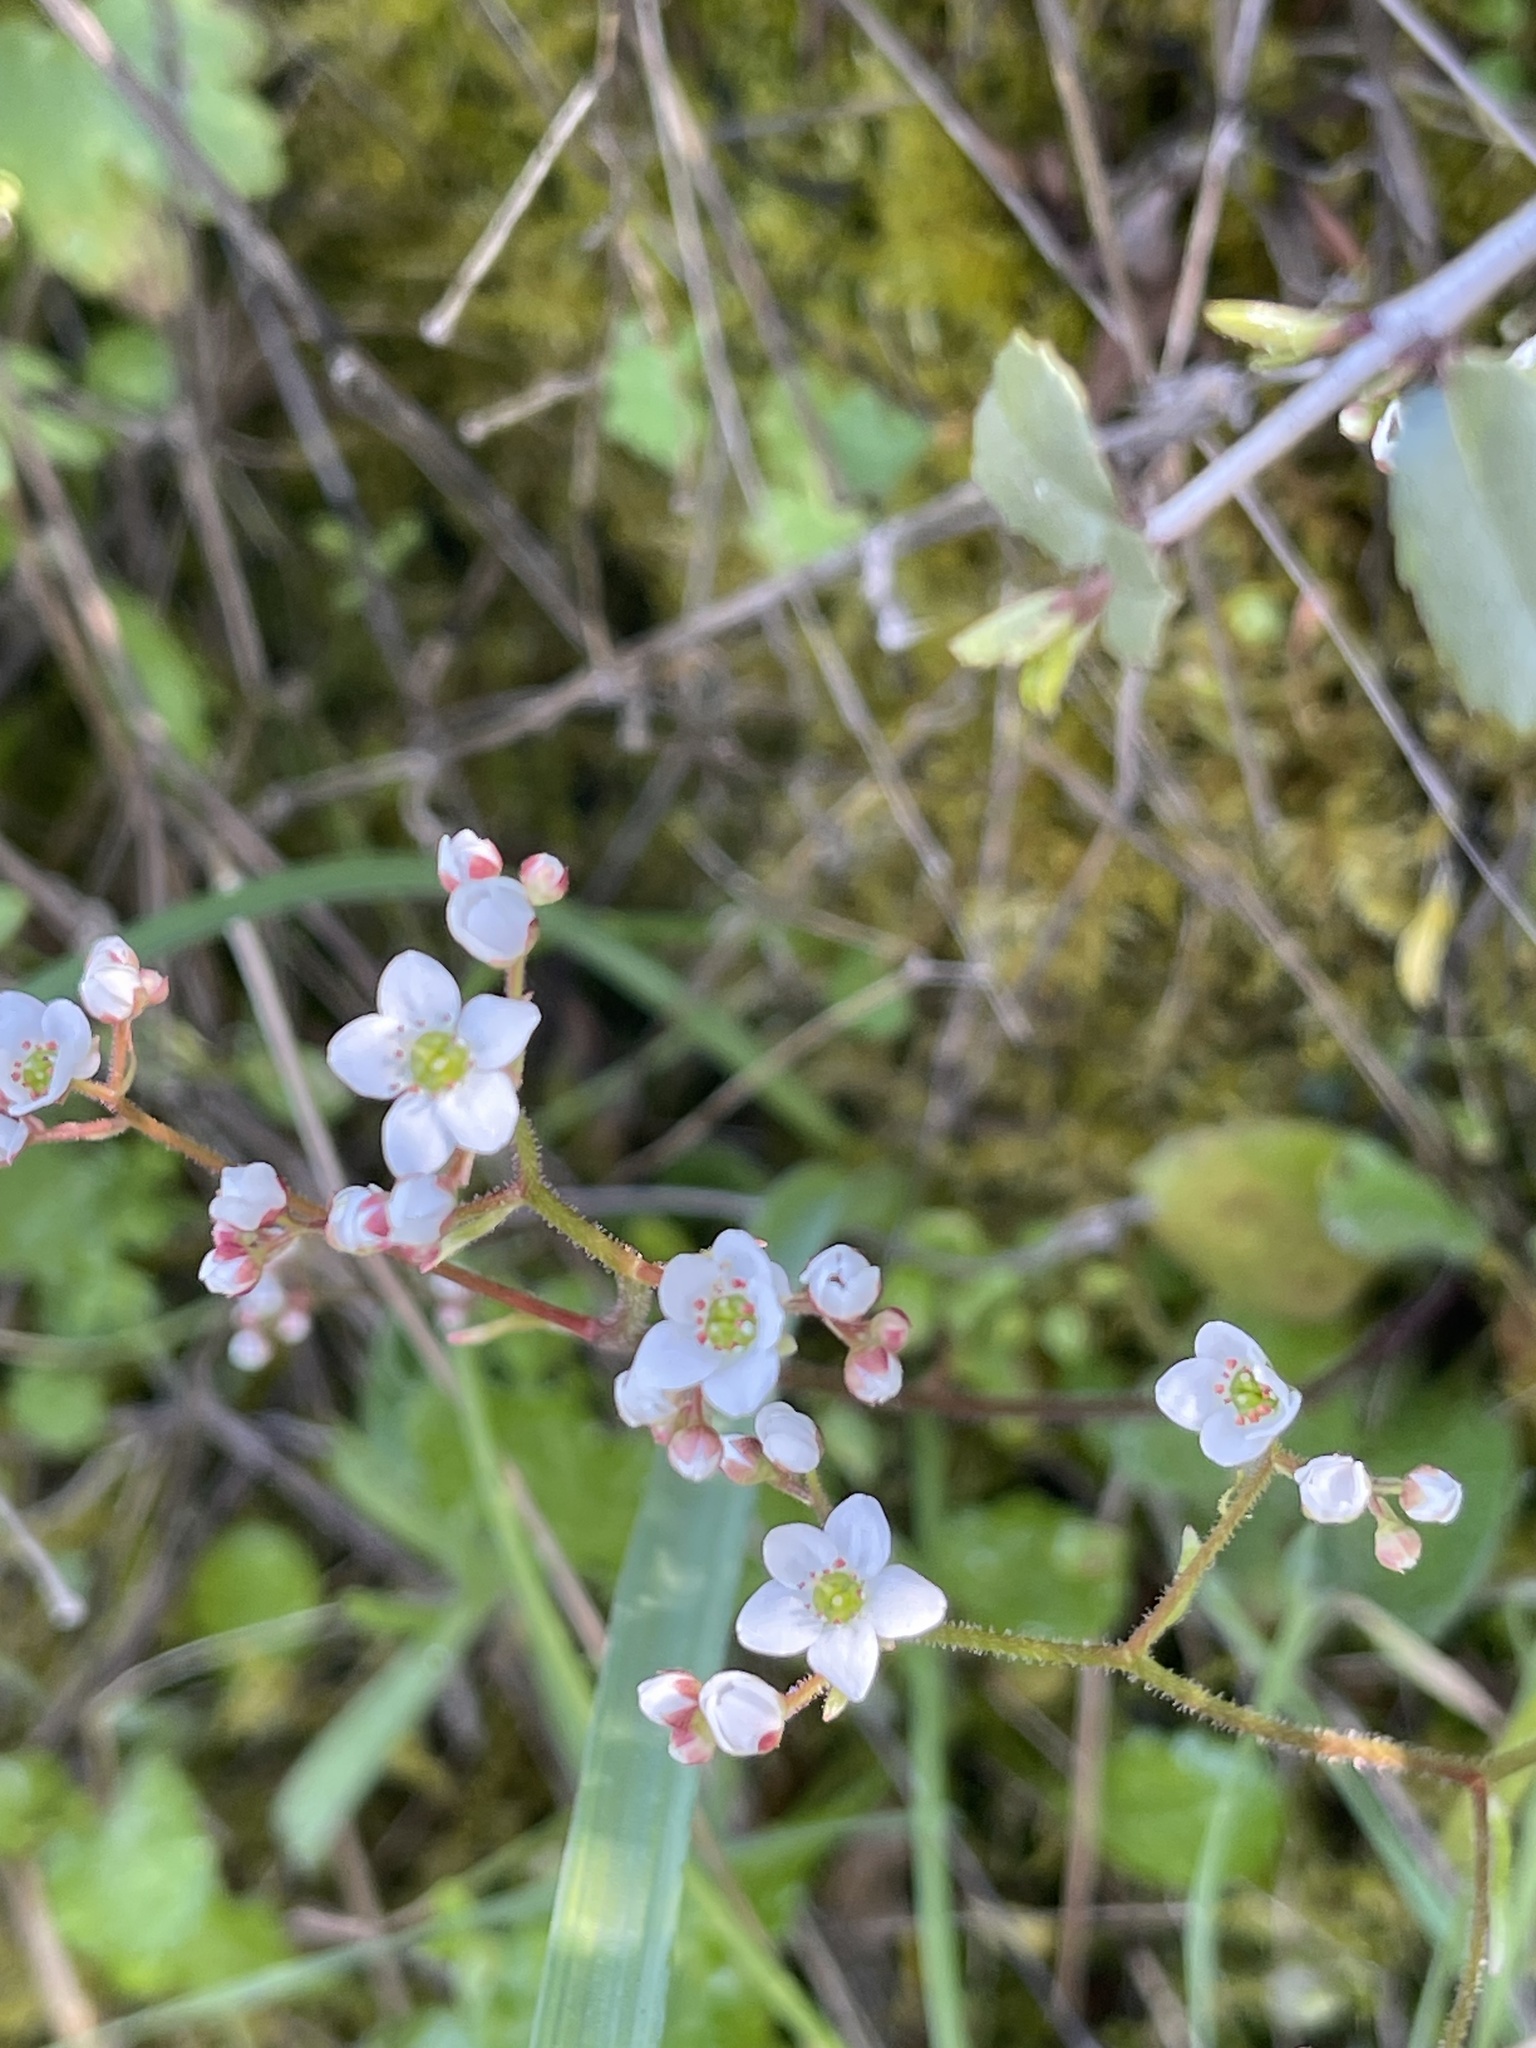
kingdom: Plantae
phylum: Tracheophyta
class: Magnoliopsida
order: Saxifragales
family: Saxifragaceae
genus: Micranthes
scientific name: Micranthes californica
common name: California saxifrage
